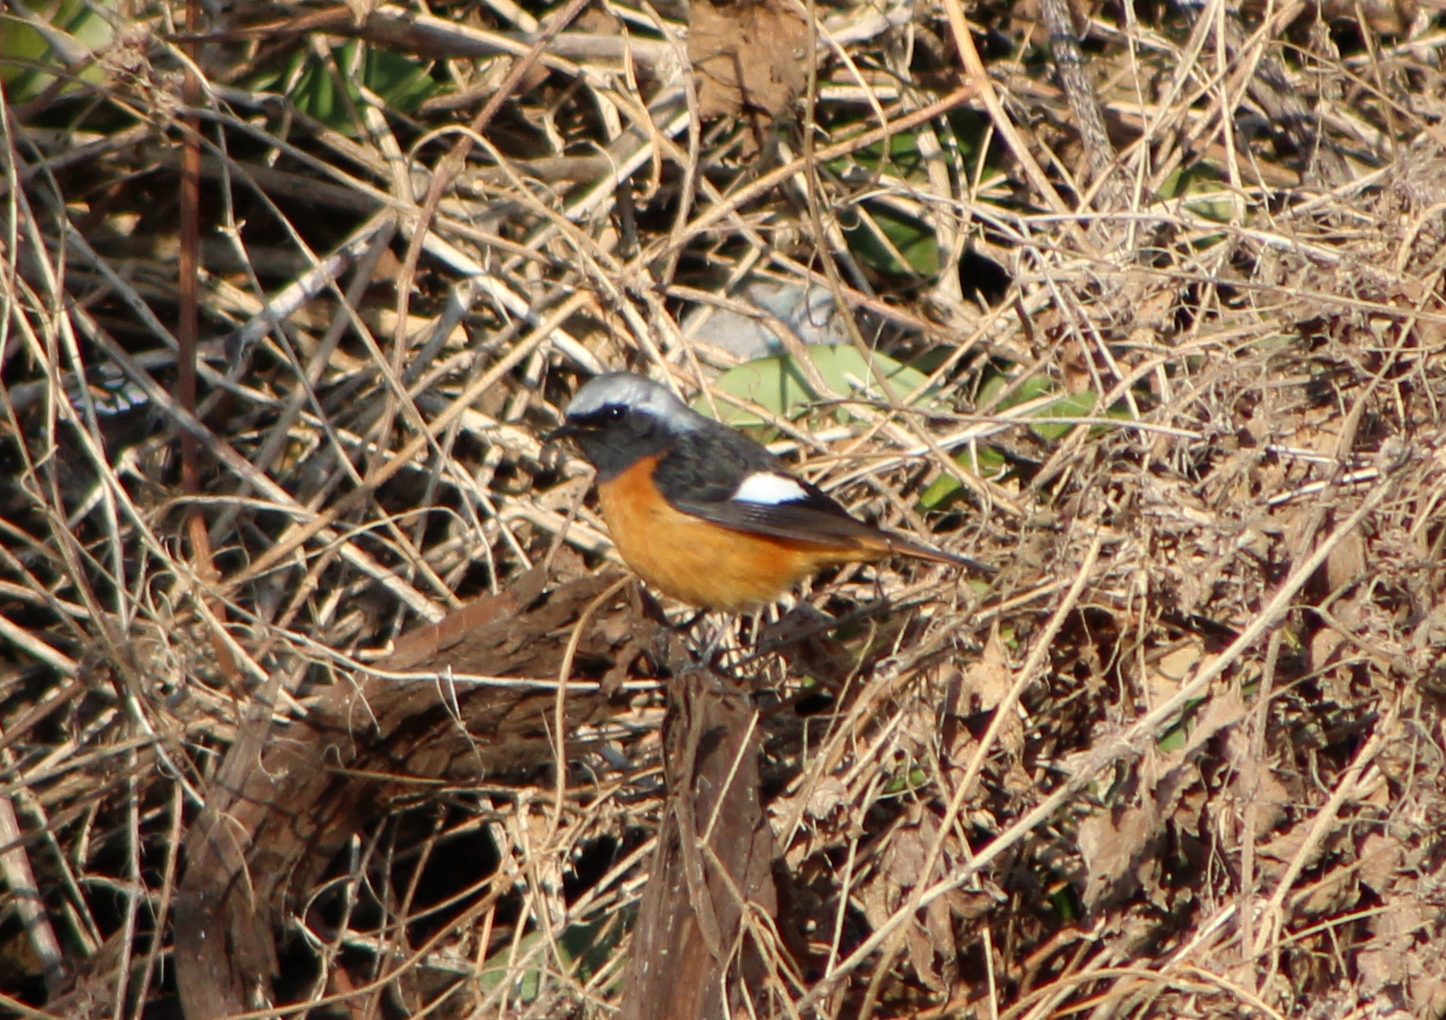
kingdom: Animalia
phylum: Chordata
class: Aves
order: Passeriformes
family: Muscicapidae
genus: Phoenicurus
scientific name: Phoenicurus auroreus
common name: Daurian redstart
